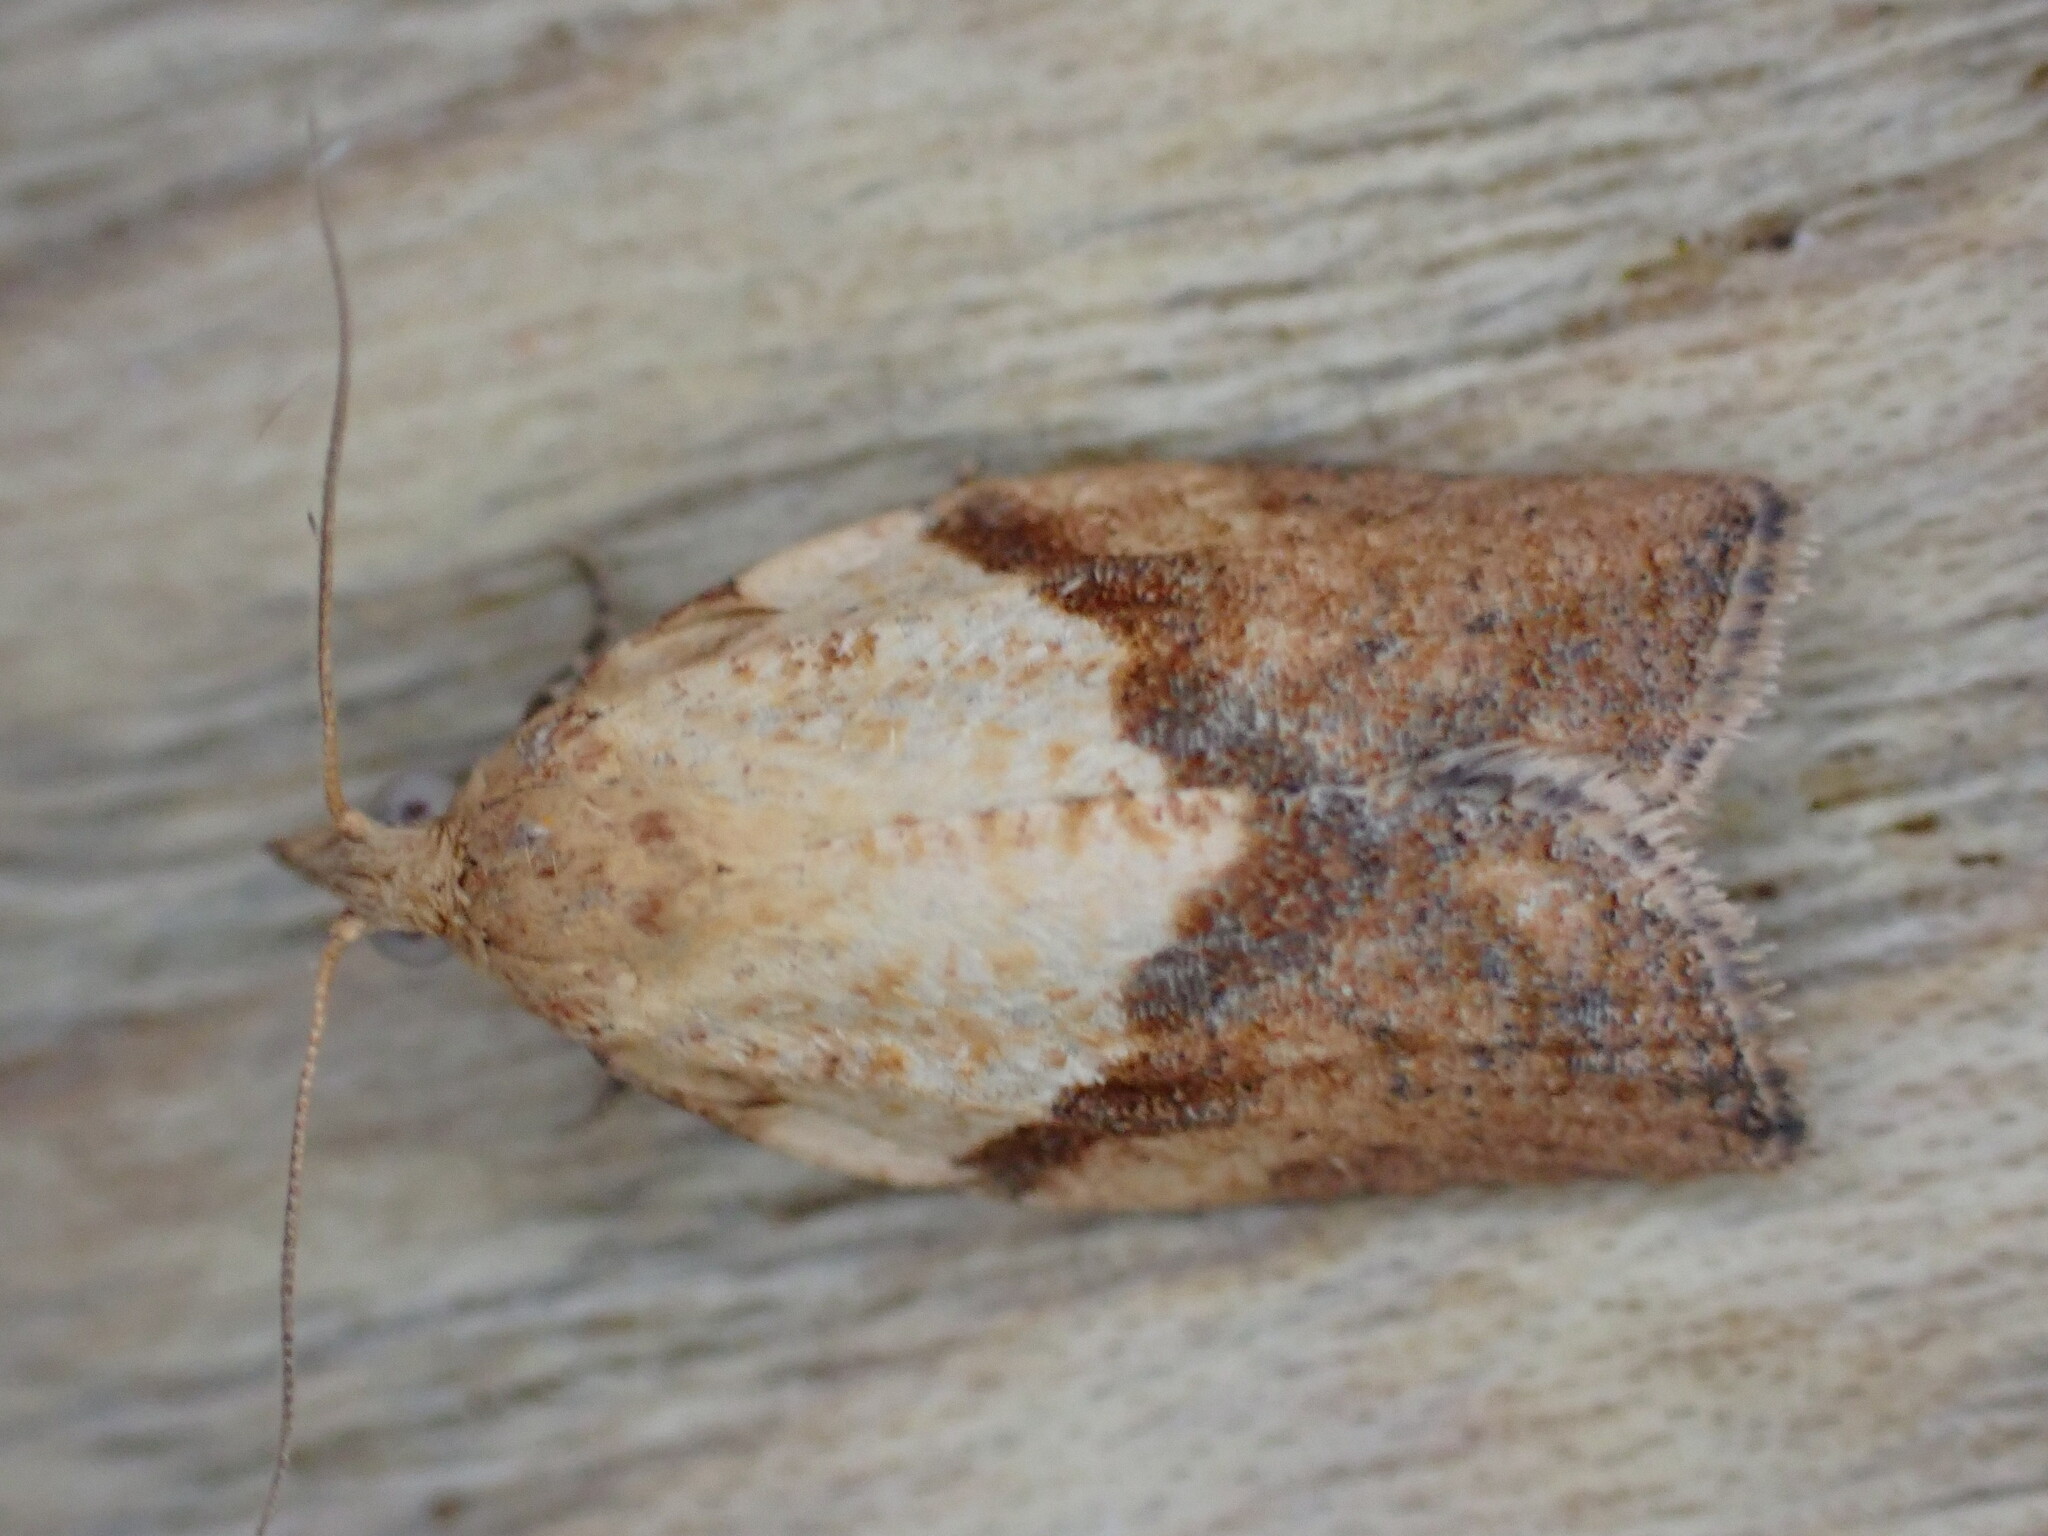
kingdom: Animalia
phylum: Arthropoda
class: Insecta
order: Lepidoptera
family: Tortricidae
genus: Epiphyas
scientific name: Epiphyas postvittana
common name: Light brown apple moth
